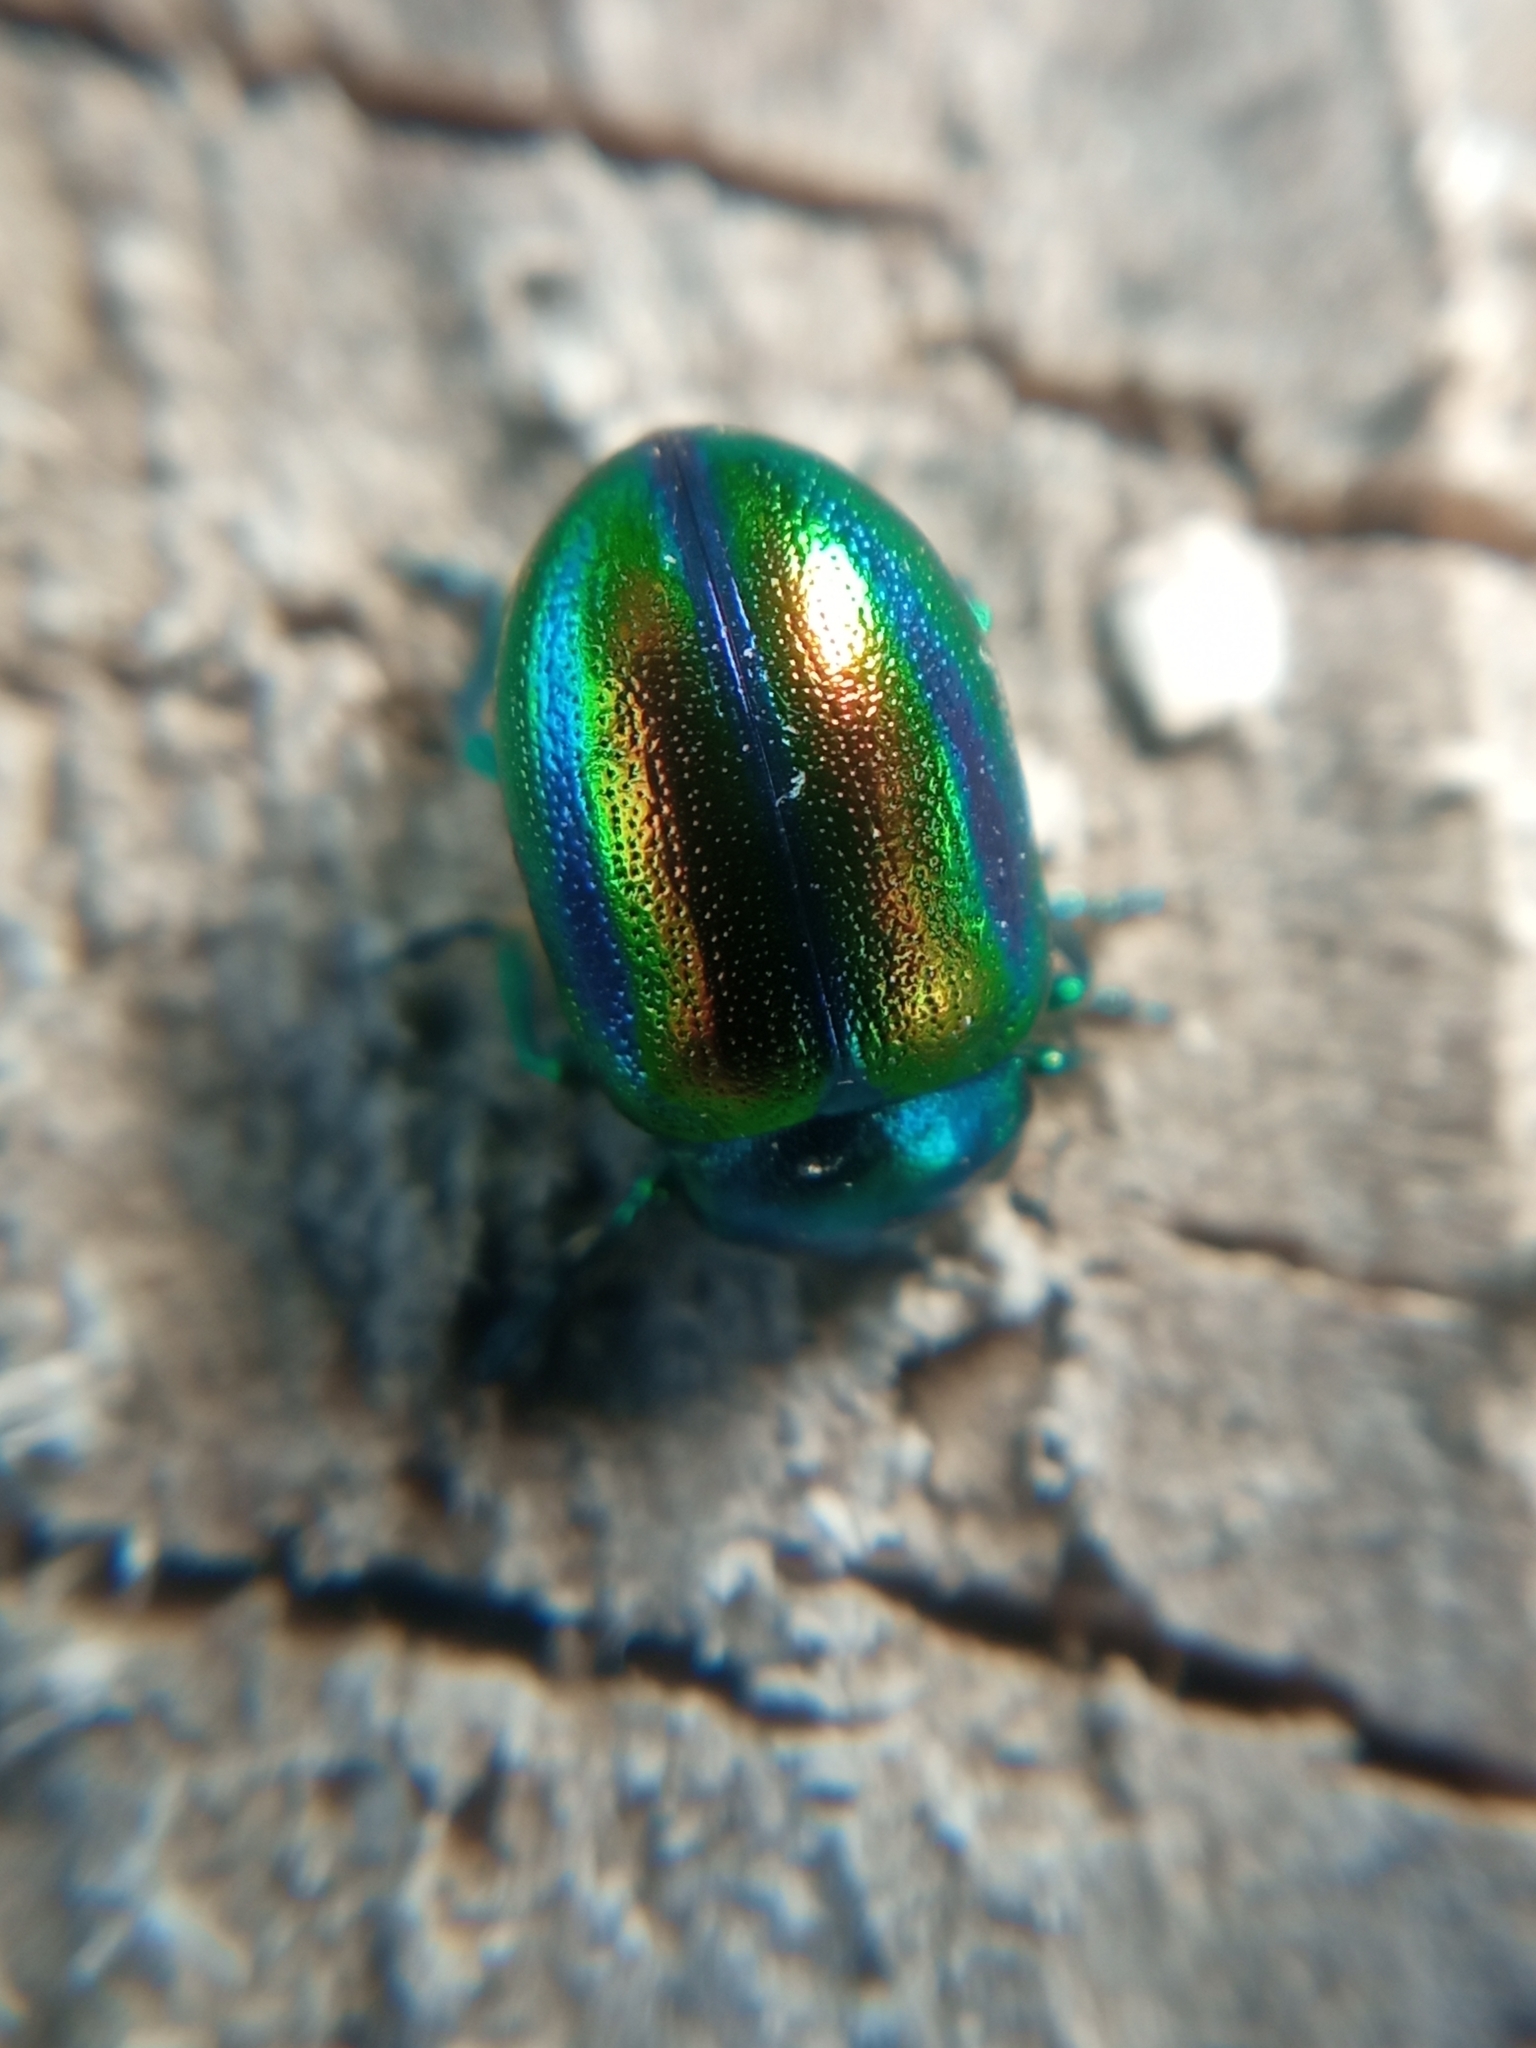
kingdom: Animalia
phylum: Arthropoda
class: Insecta
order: Coleoptera
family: Chrysomelidae
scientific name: Chrysomelidae
